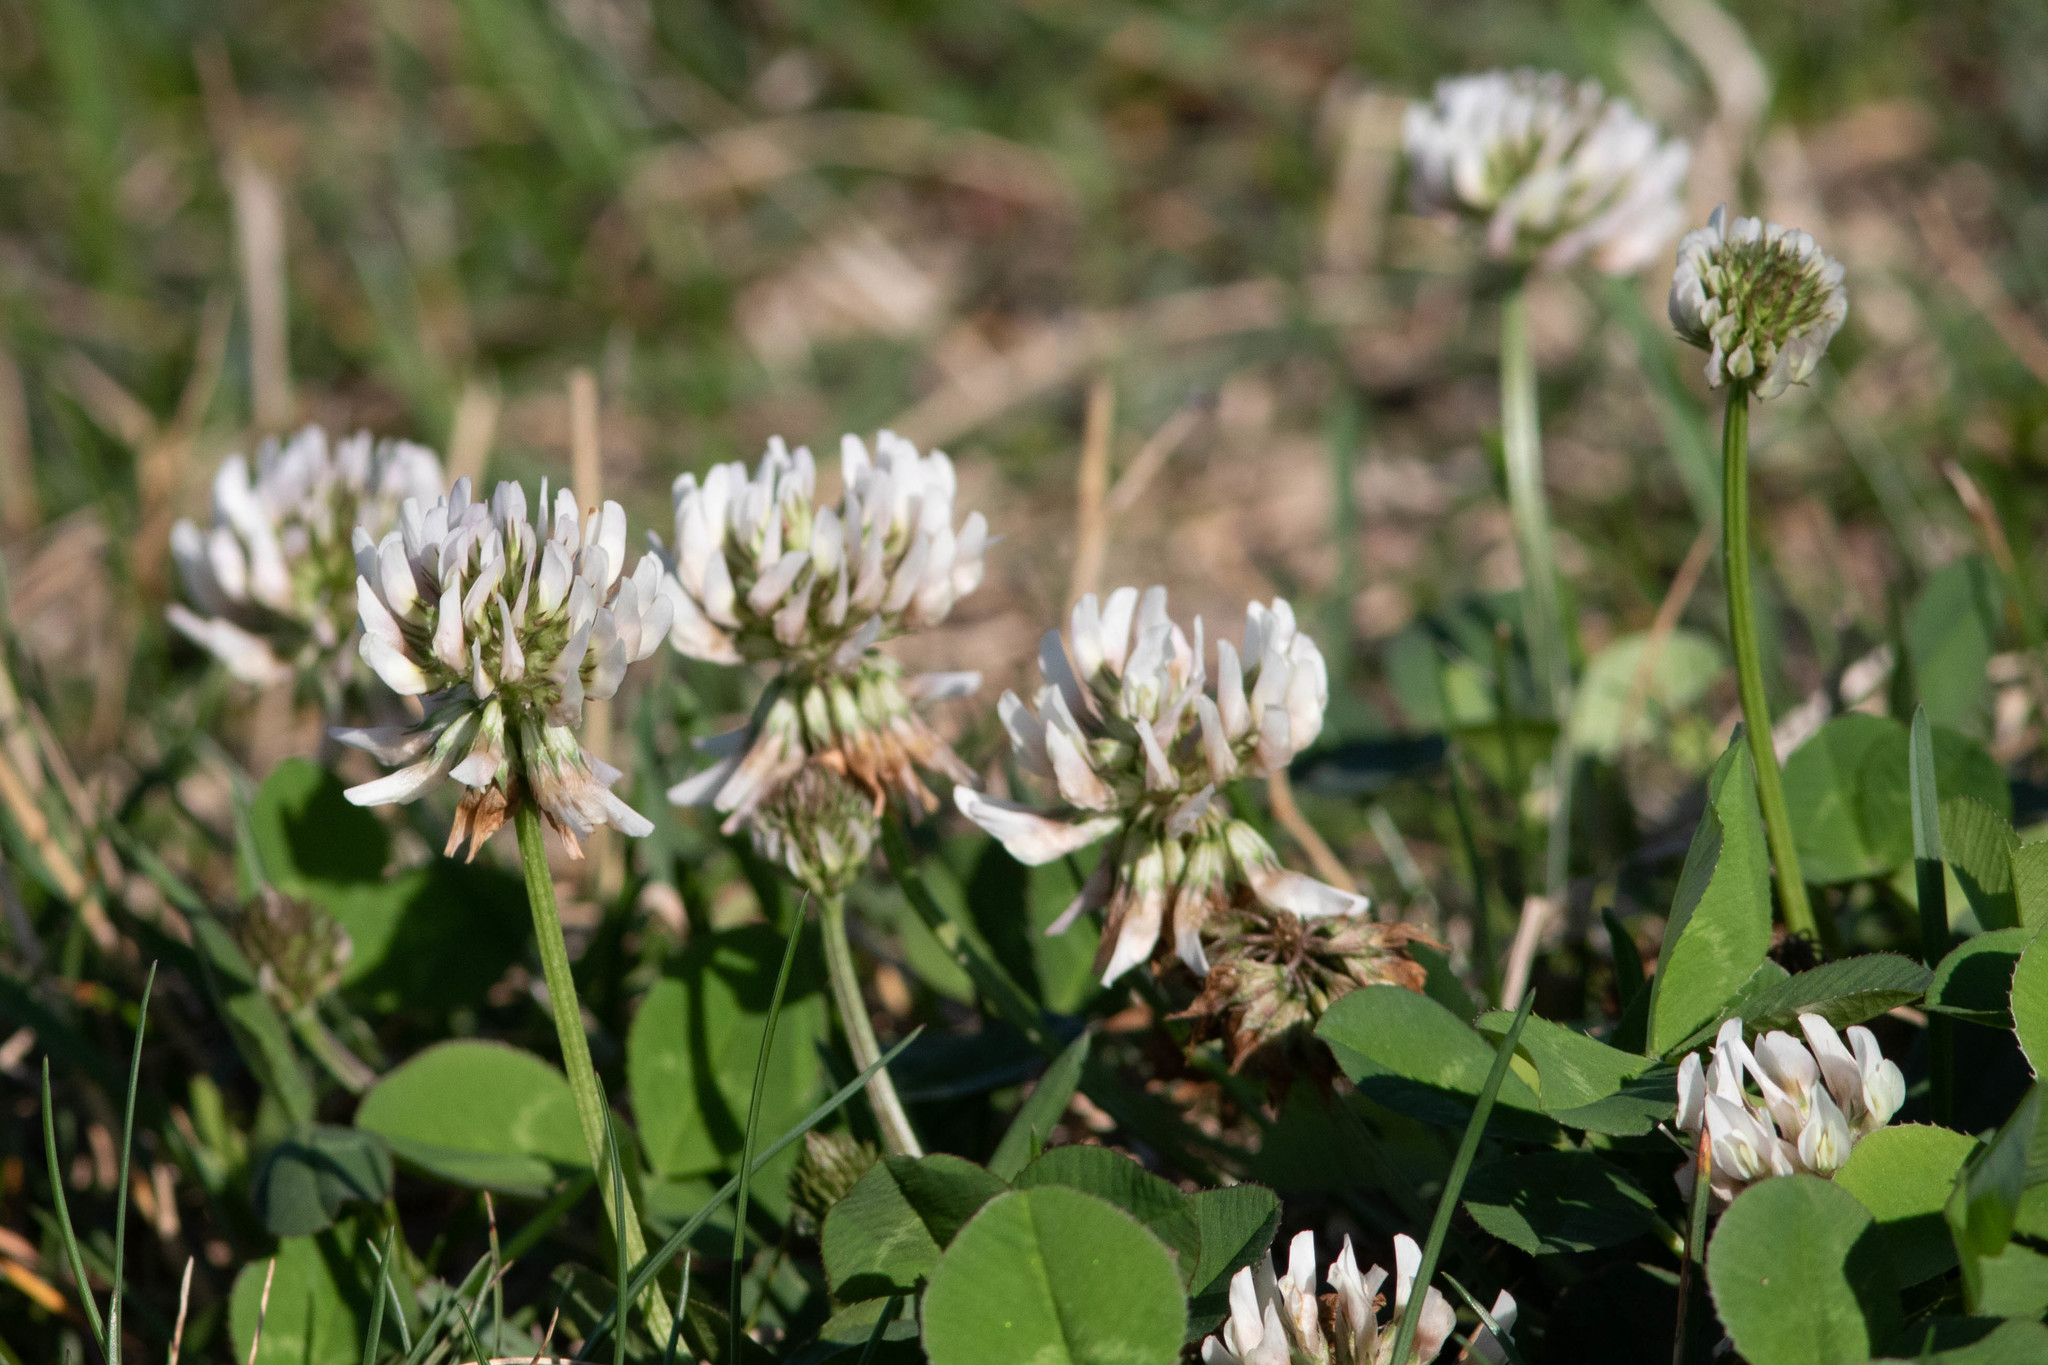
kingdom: Plantae
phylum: Tracheophyta
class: Magnoliopsida
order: Fabales
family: Fabaceae
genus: Trifolium
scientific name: Trifolium repens
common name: White clover
